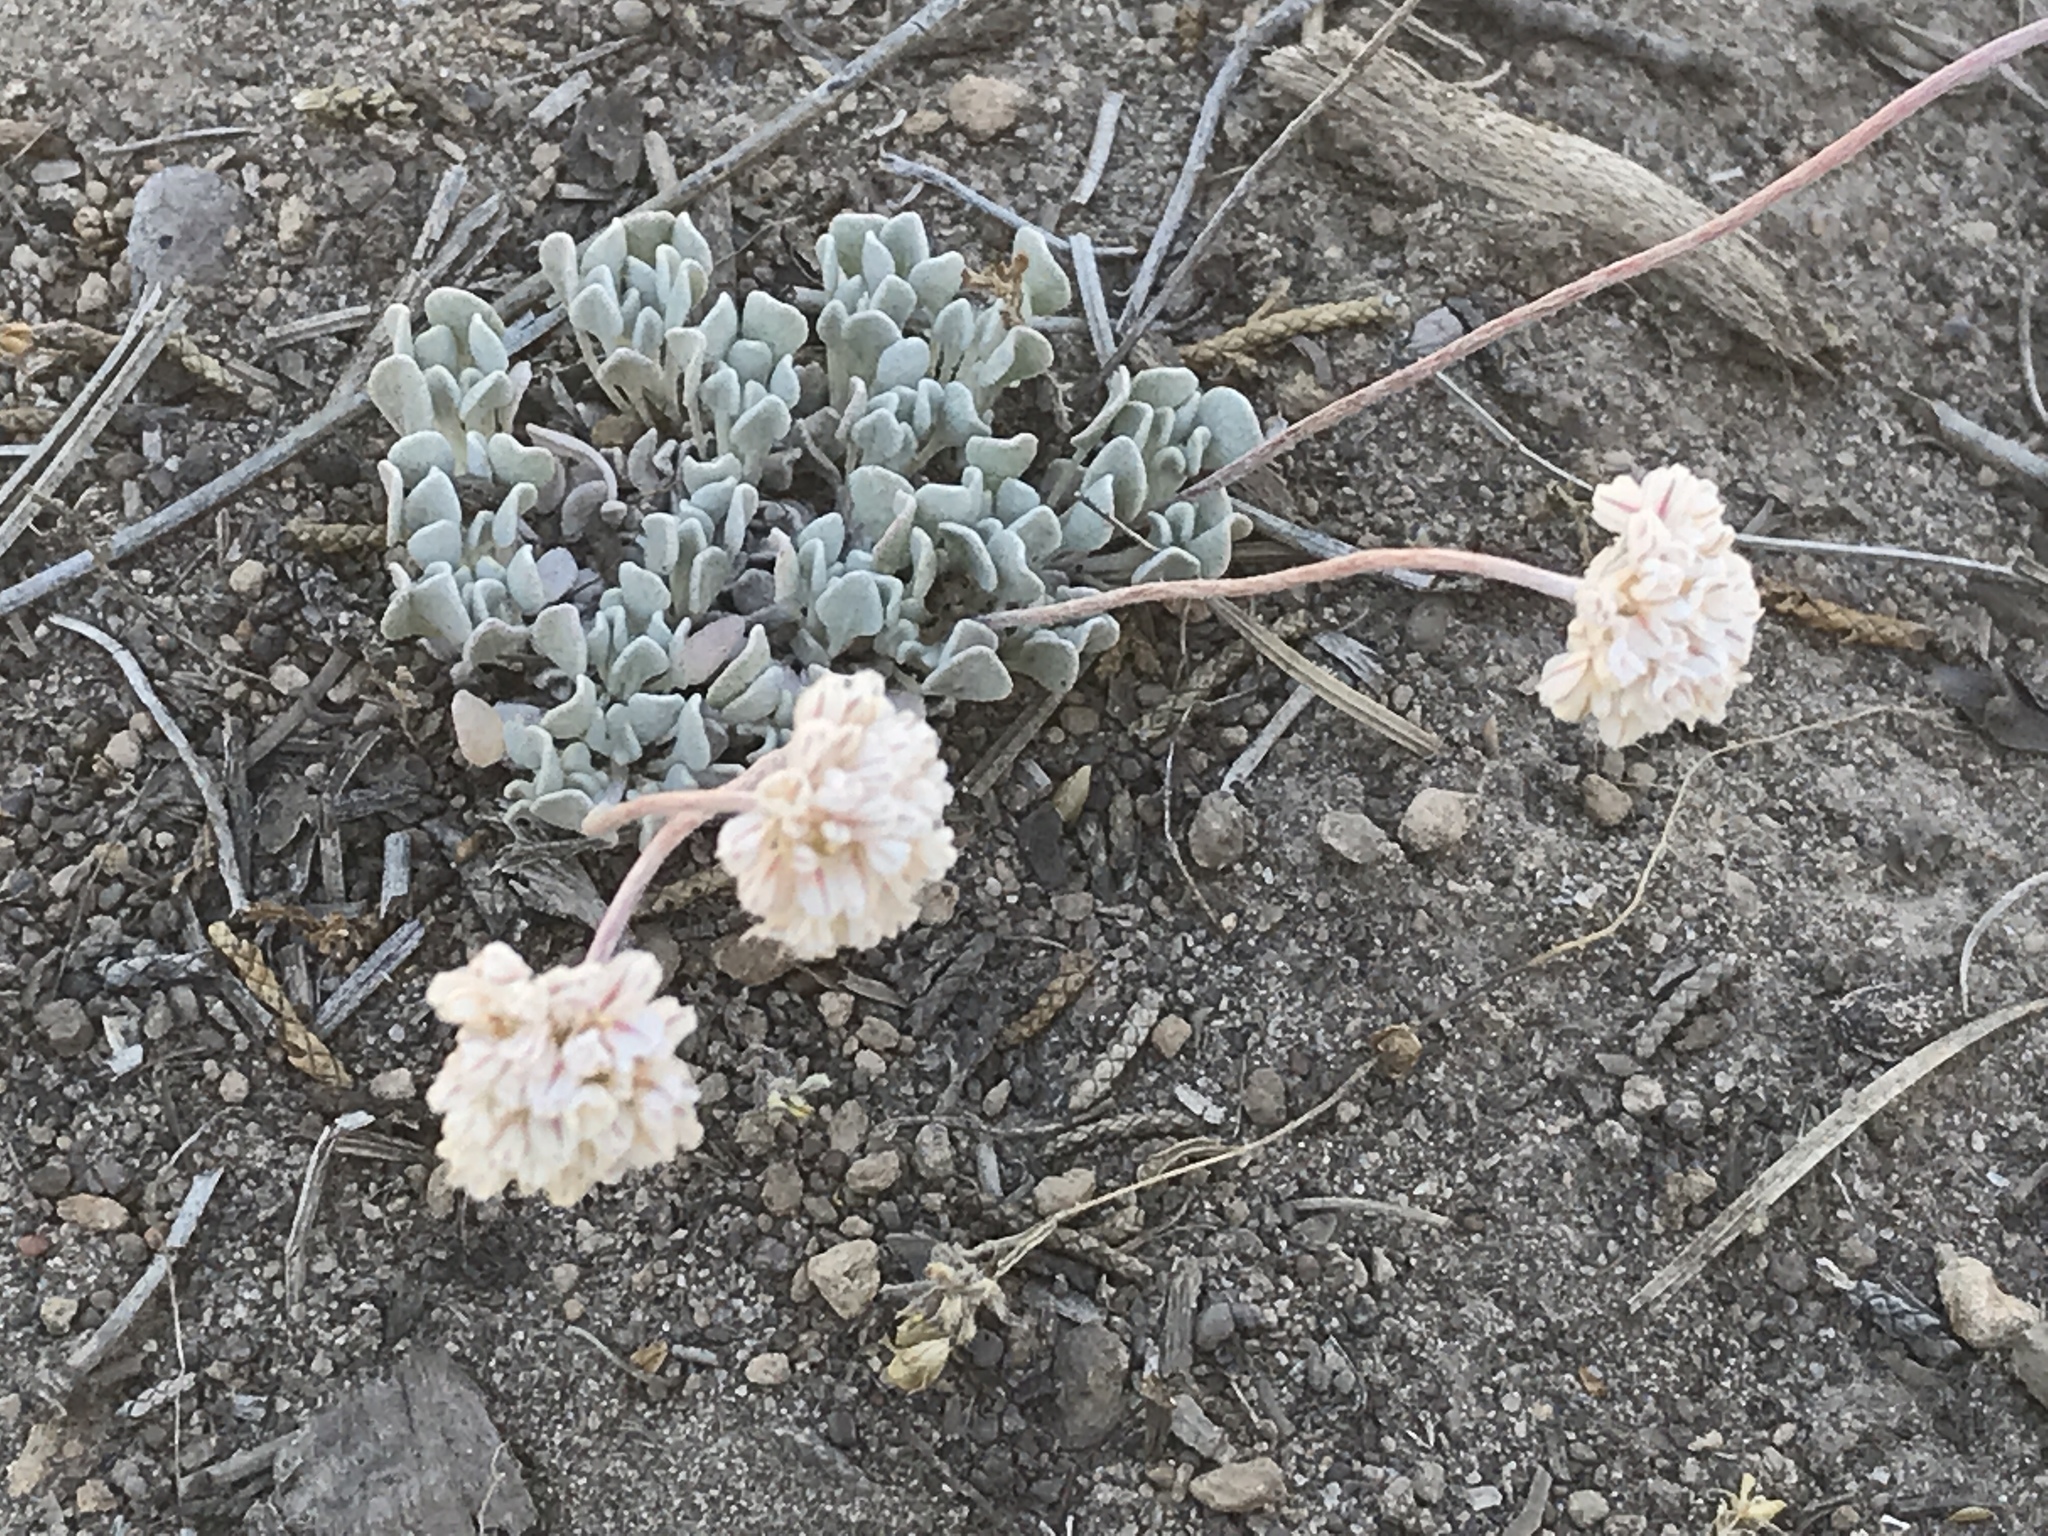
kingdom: Plantae
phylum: Tracheophyta
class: Magnoliopsida
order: Caryophyllales
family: Polygonaceae
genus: Eriogonum
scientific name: Eriogonum ovalifolium
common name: Cushion buckwheat
